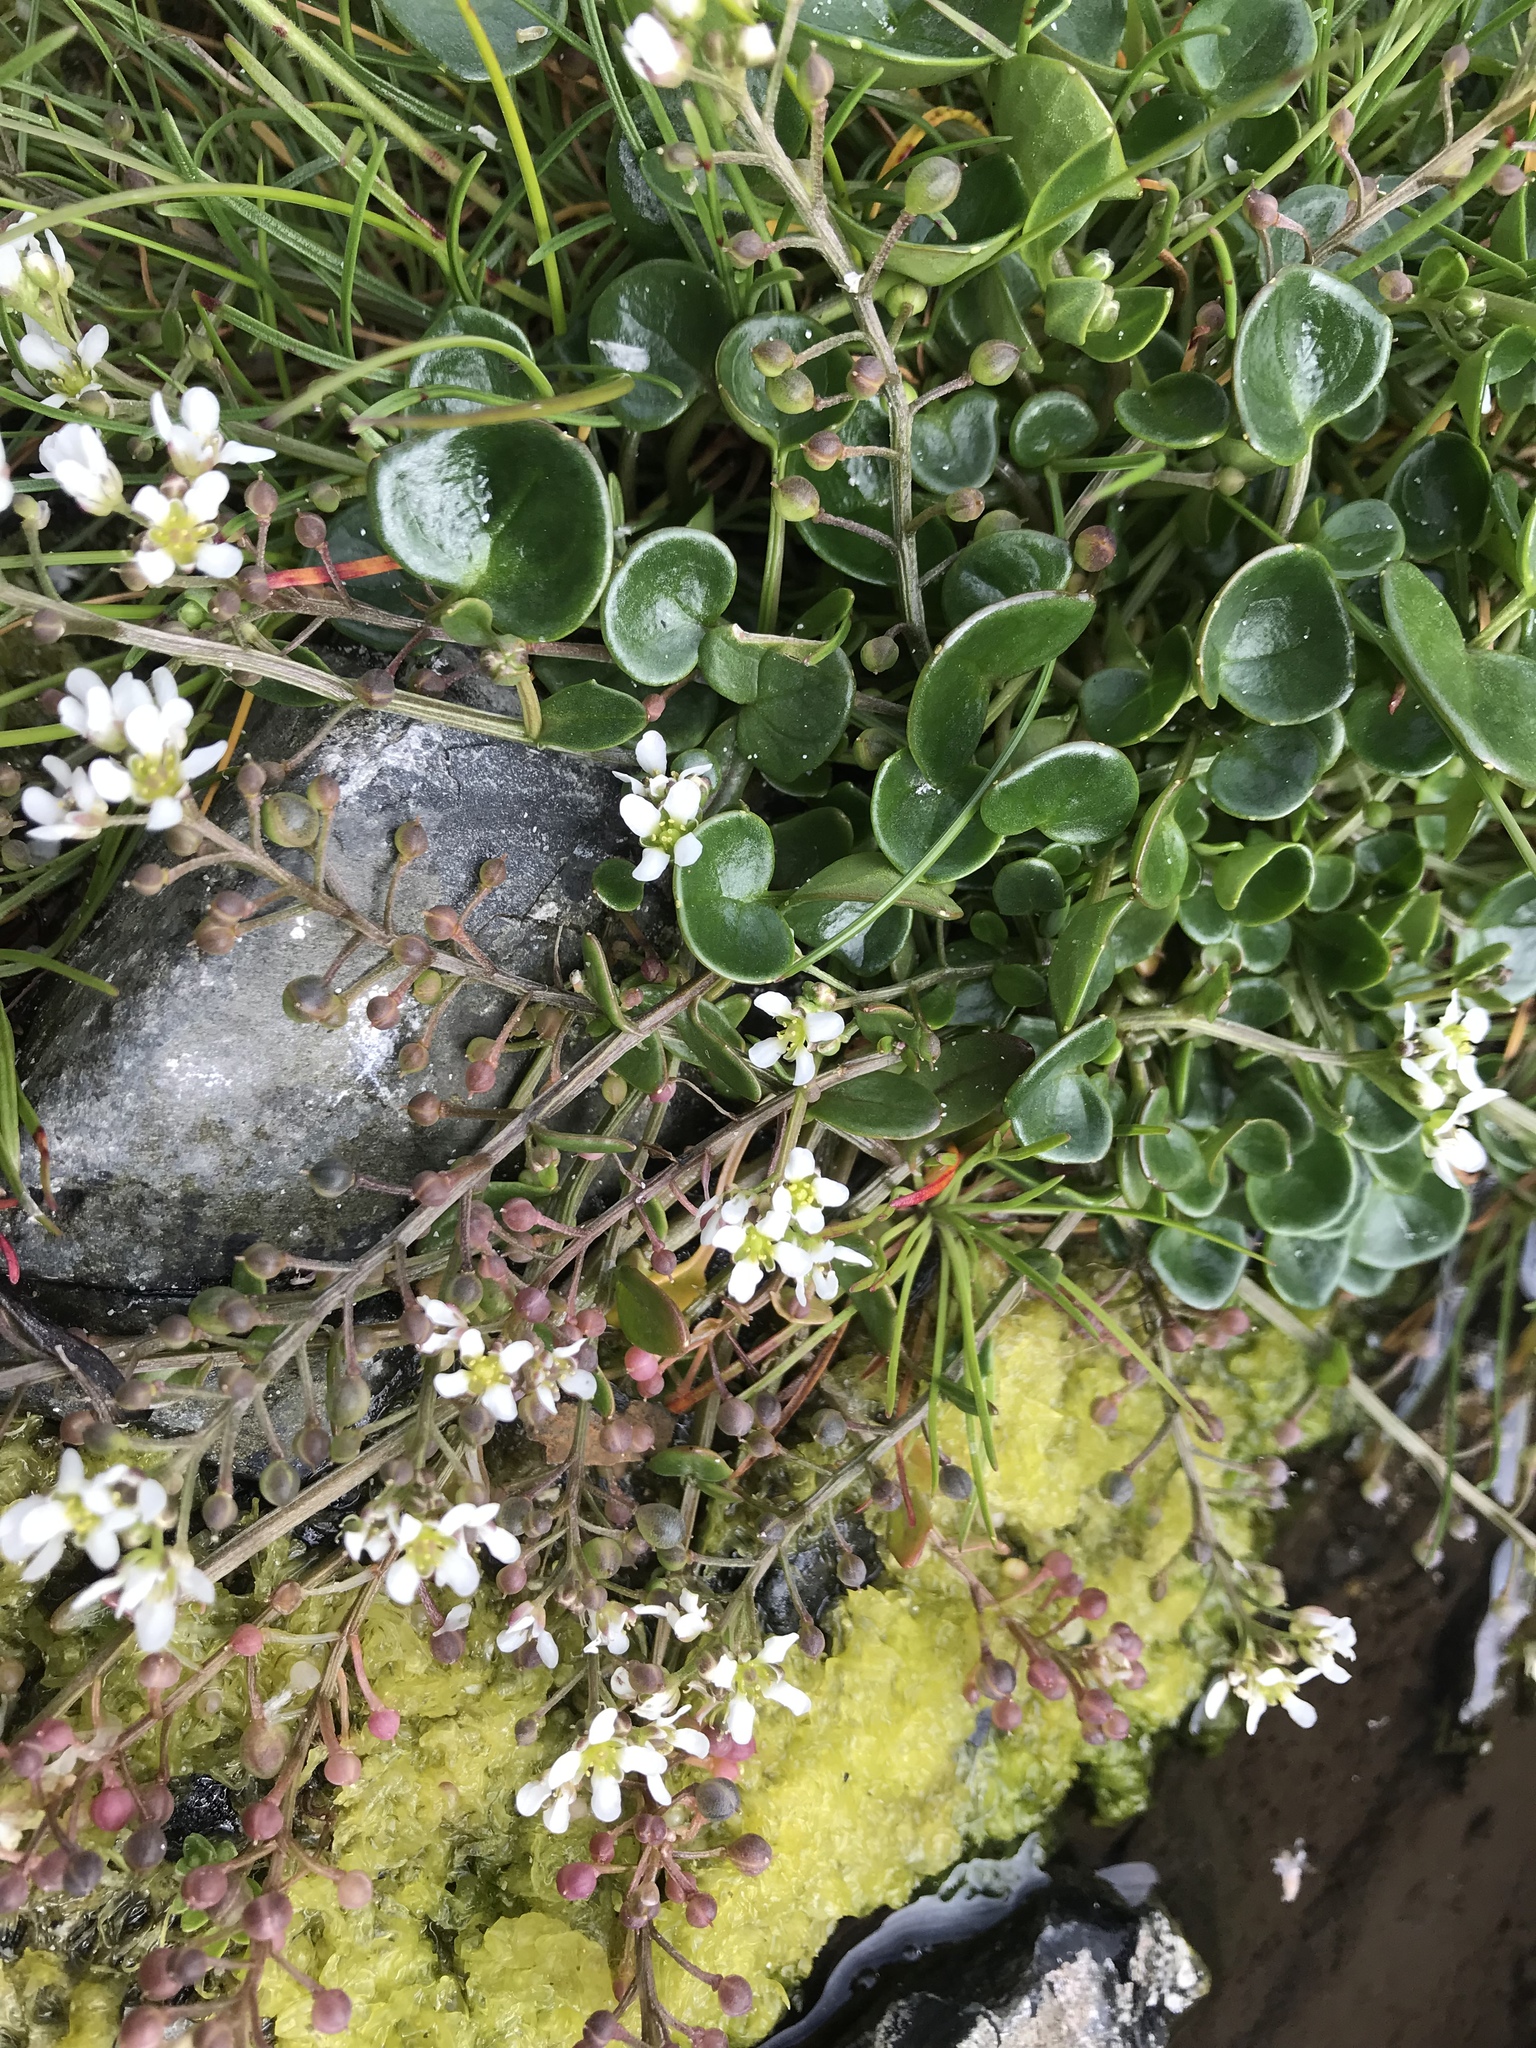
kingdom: Plantae
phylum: Tracheophyta
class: Magnoliopsida
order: Brassicales
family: Brassicaceae
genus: Cochlearia
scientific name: Cochlearia officinalis
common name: Scurvy-grass
